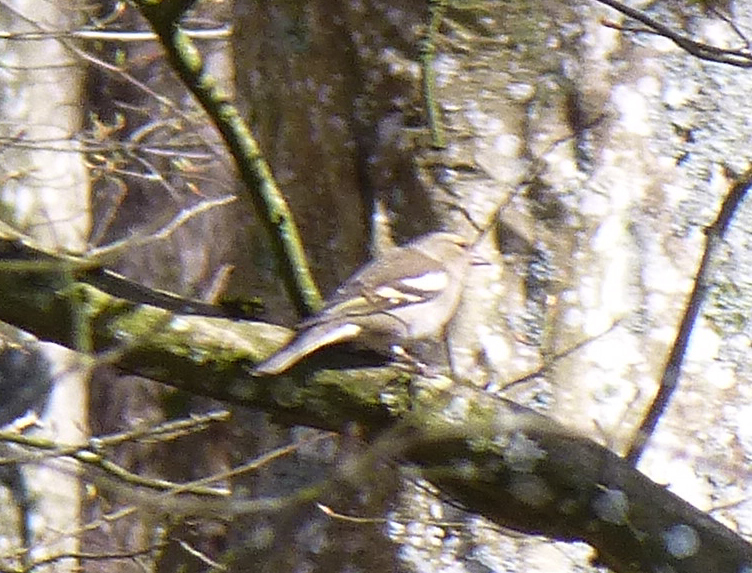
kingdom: Animalia
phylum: Chordata
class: Aves
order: Passeriformes
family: Fringillidae
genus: Fringilla
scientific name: Fringilla coelebs
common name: Common chaffinch
